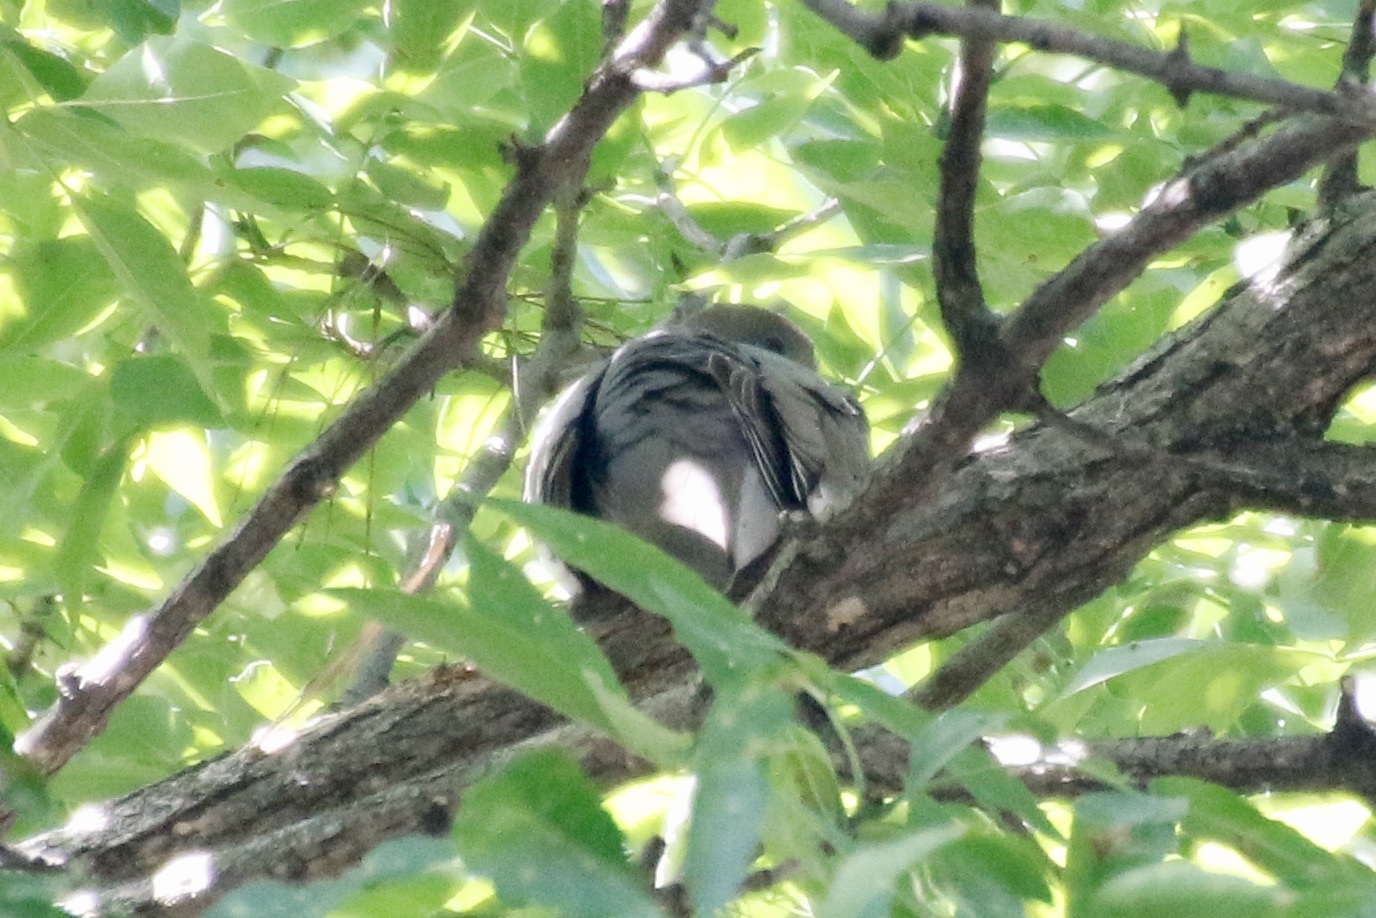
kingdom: Animalia
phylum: Chordata
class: Aves
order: Columbiformes
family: Columbidae
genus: Zenaida
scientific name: Zenaida asiatica
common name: White-winged dove
